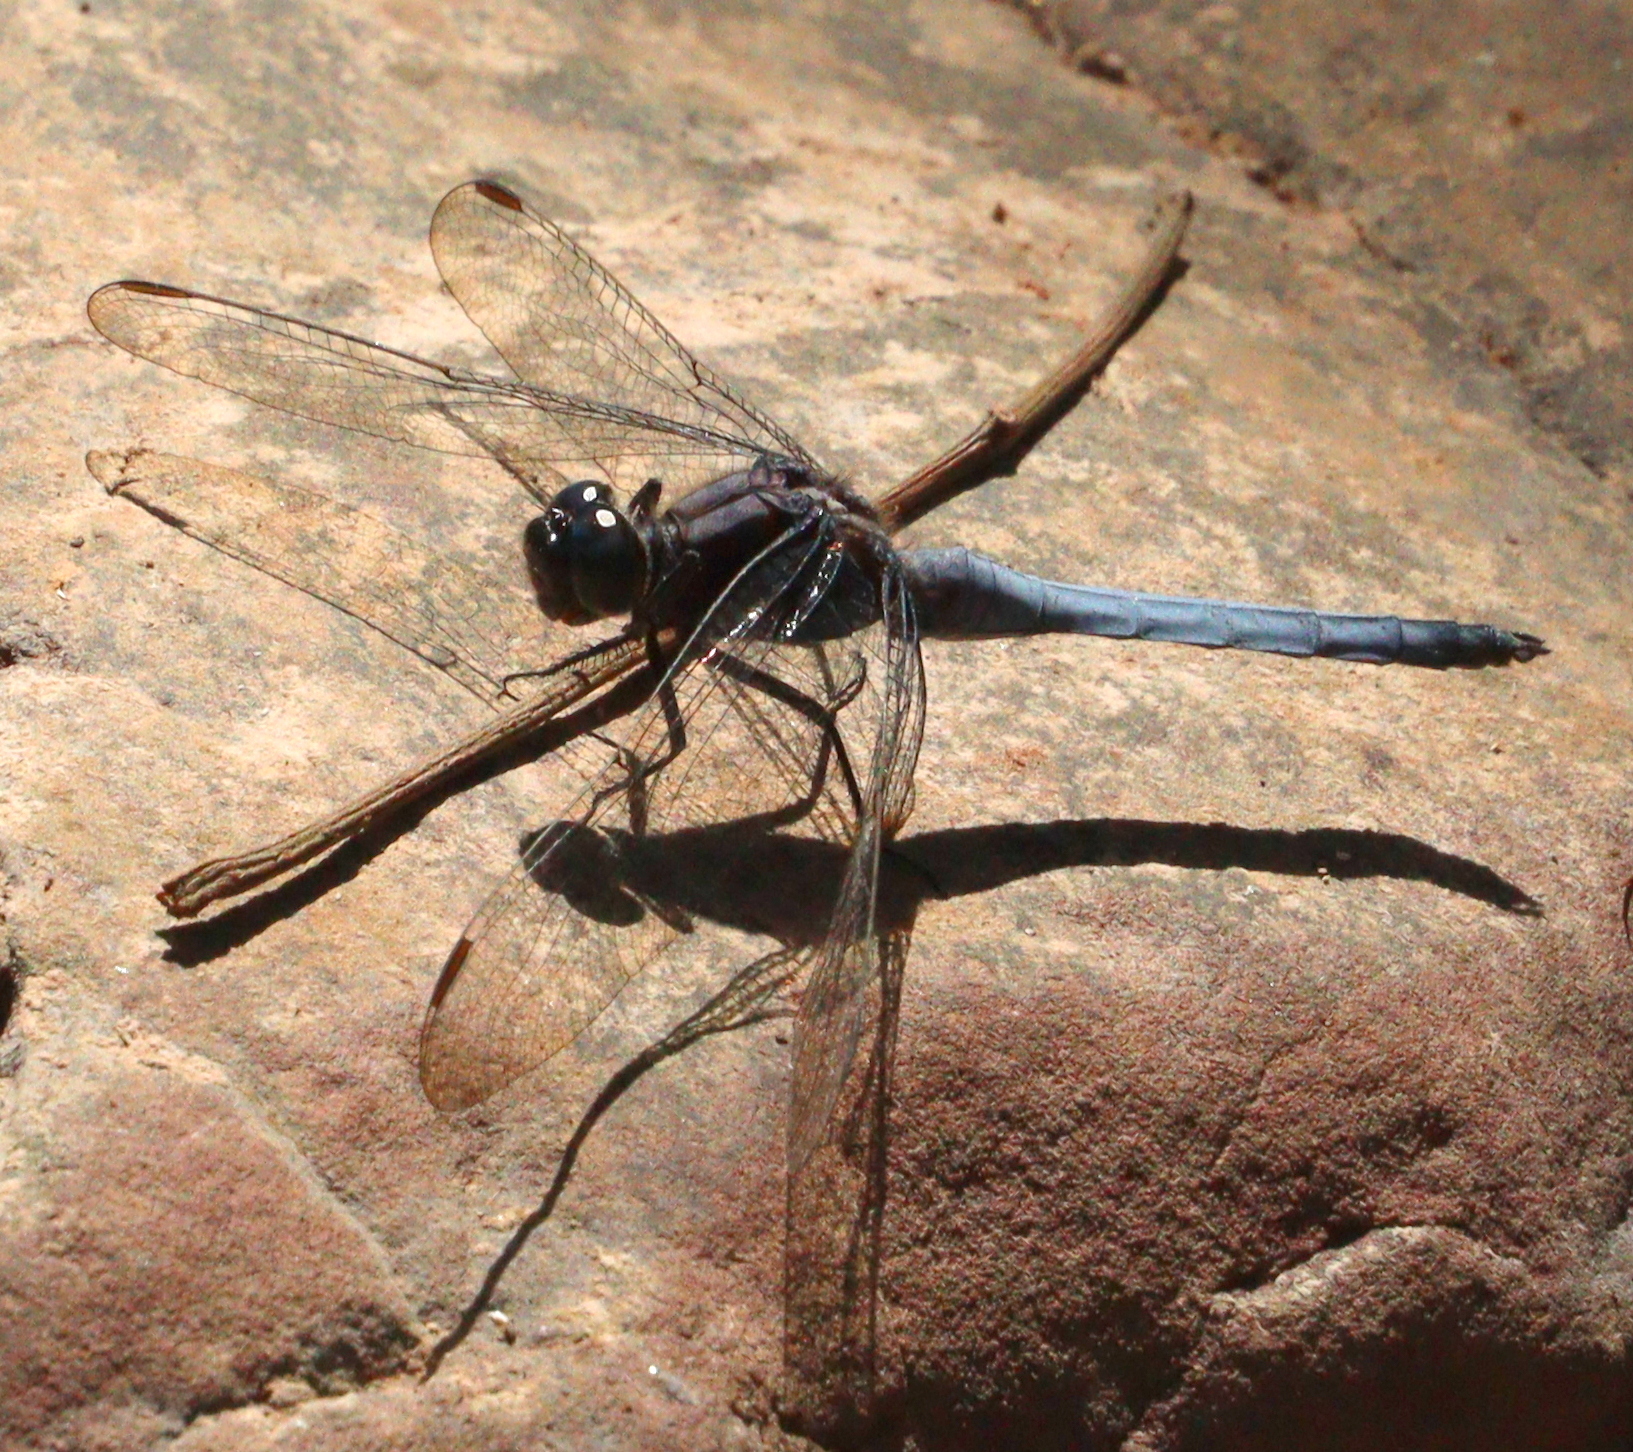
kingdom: Animalia
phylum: Arthropoda
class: Insecta
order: Odonata
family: Libellulidae
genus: Orthetrum
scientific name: Orthetrum glaucum
